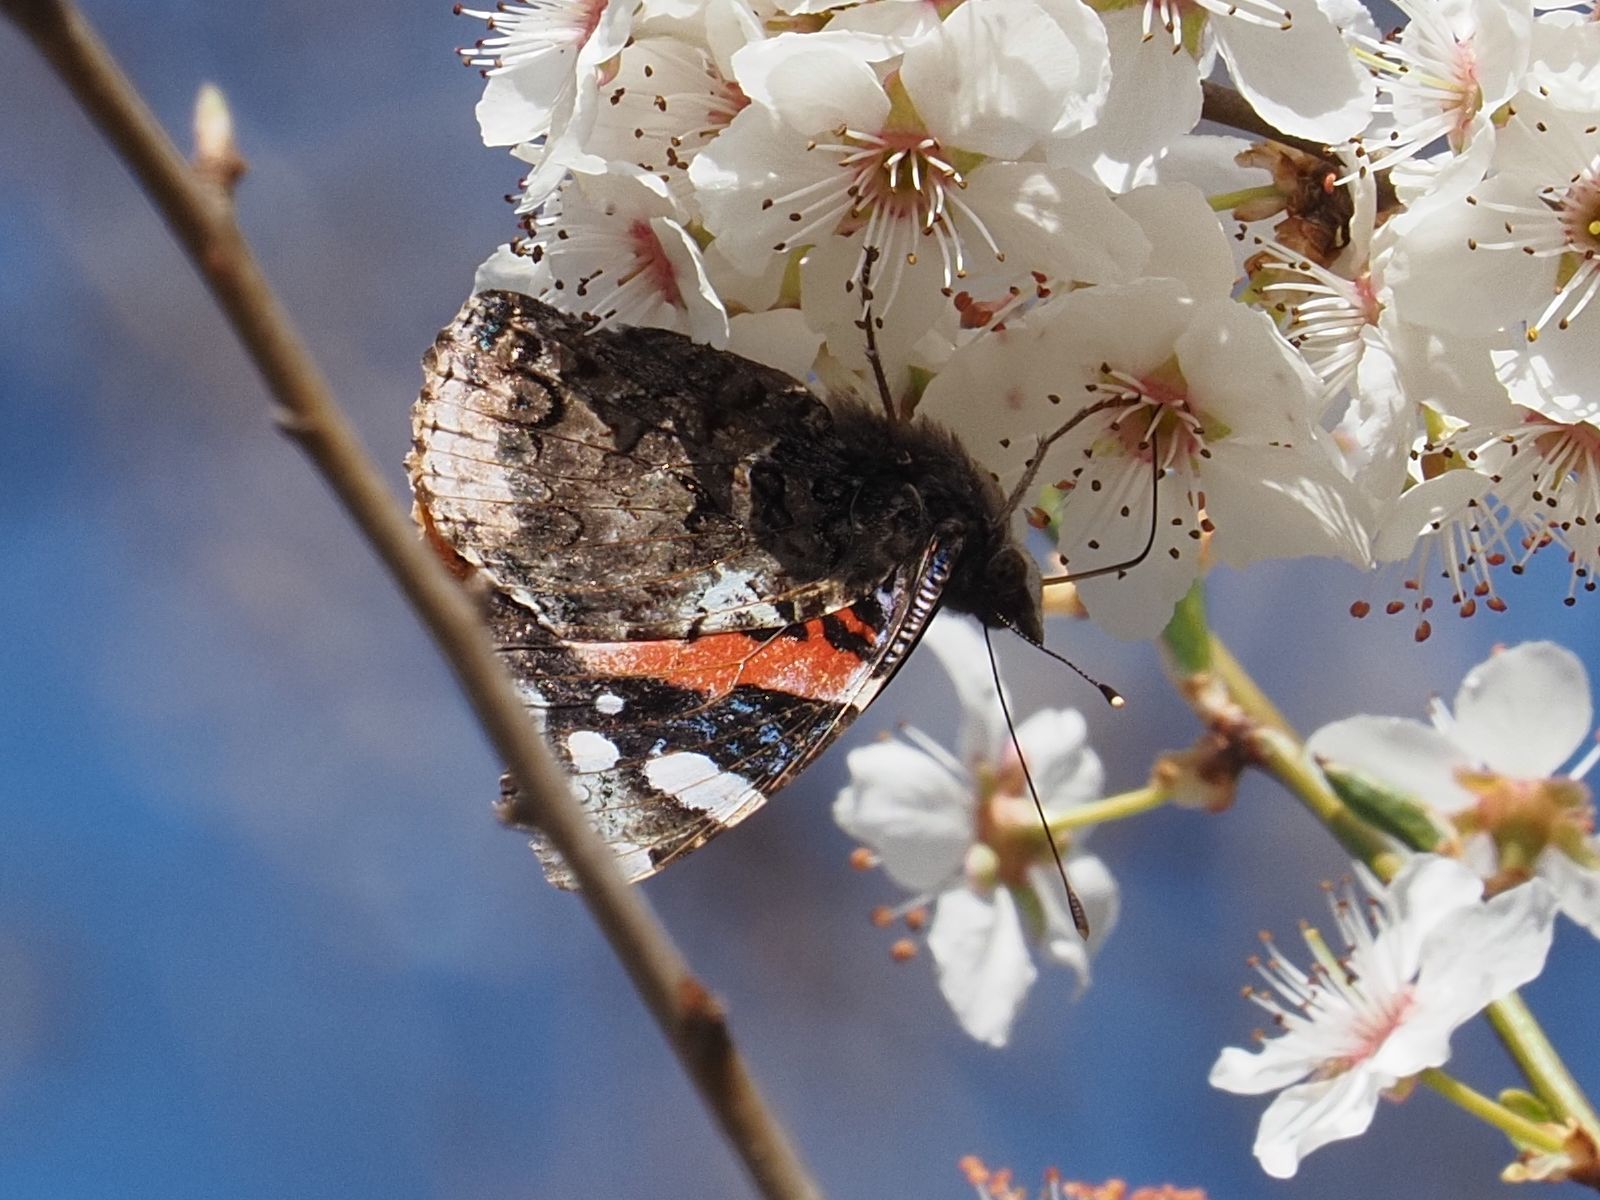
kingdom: Animalia
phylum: Arthropoda
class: Insecta
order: Lepidoptera
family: Nymphalidae
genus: Vanessa
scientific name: Vanessa atalanta
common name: Red admiral
